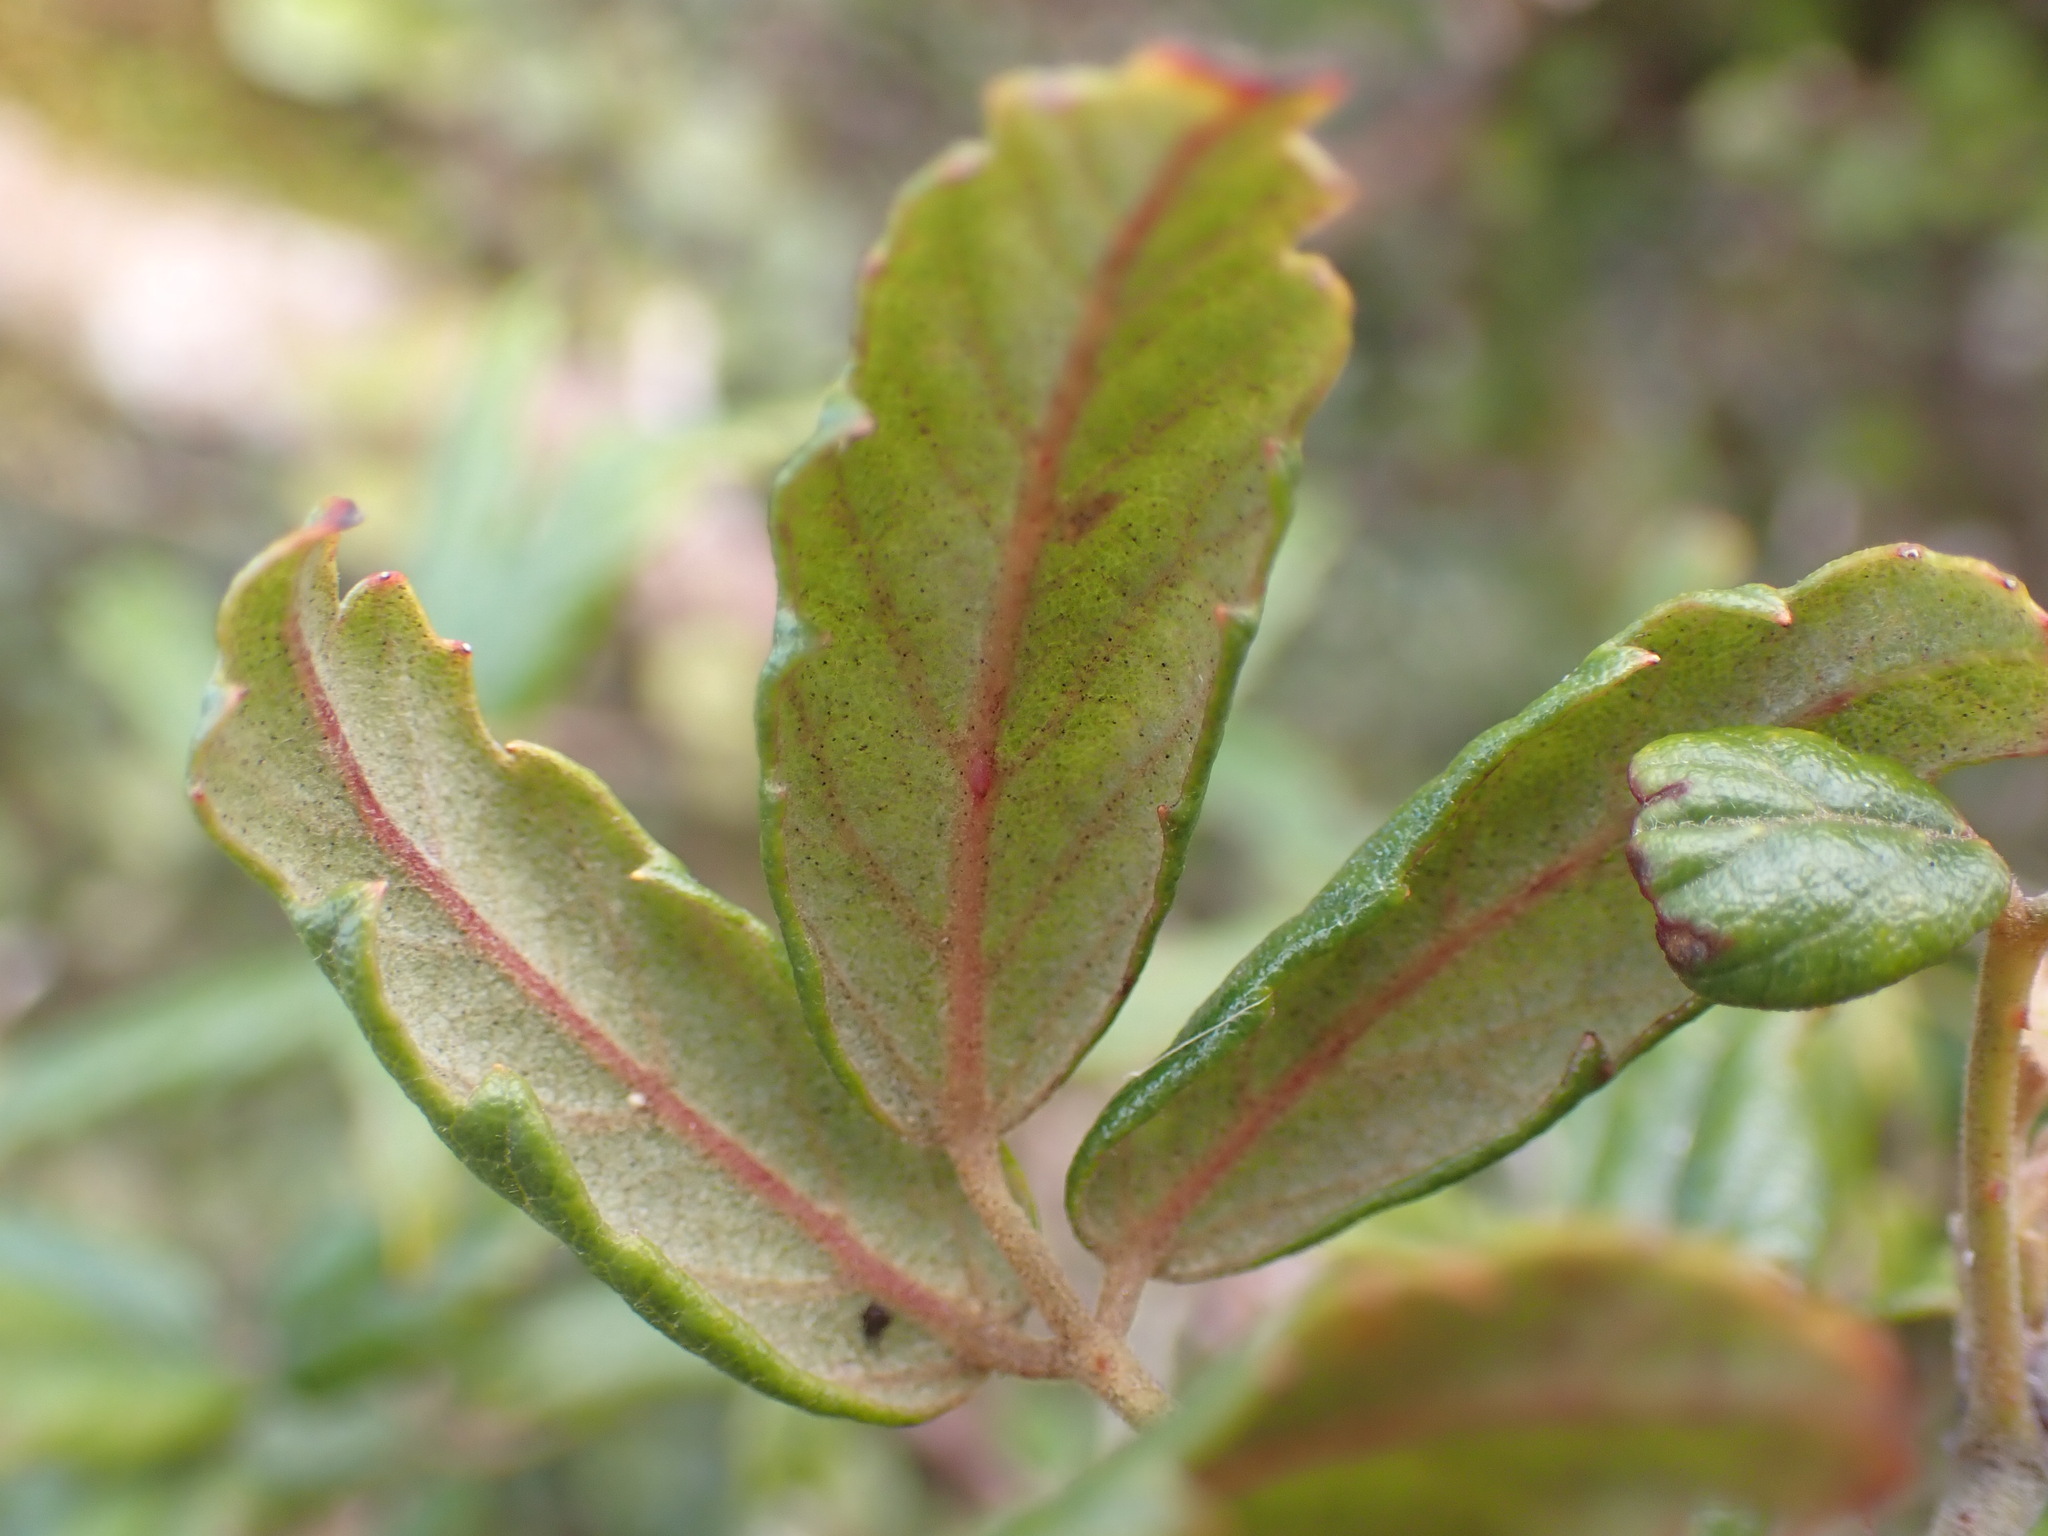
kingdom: Plantae
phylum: Tracheophyta
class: Magnoliopsida
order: Rosales
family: Rosaceae
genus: Rubus
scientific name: Rubus schmidelioides
